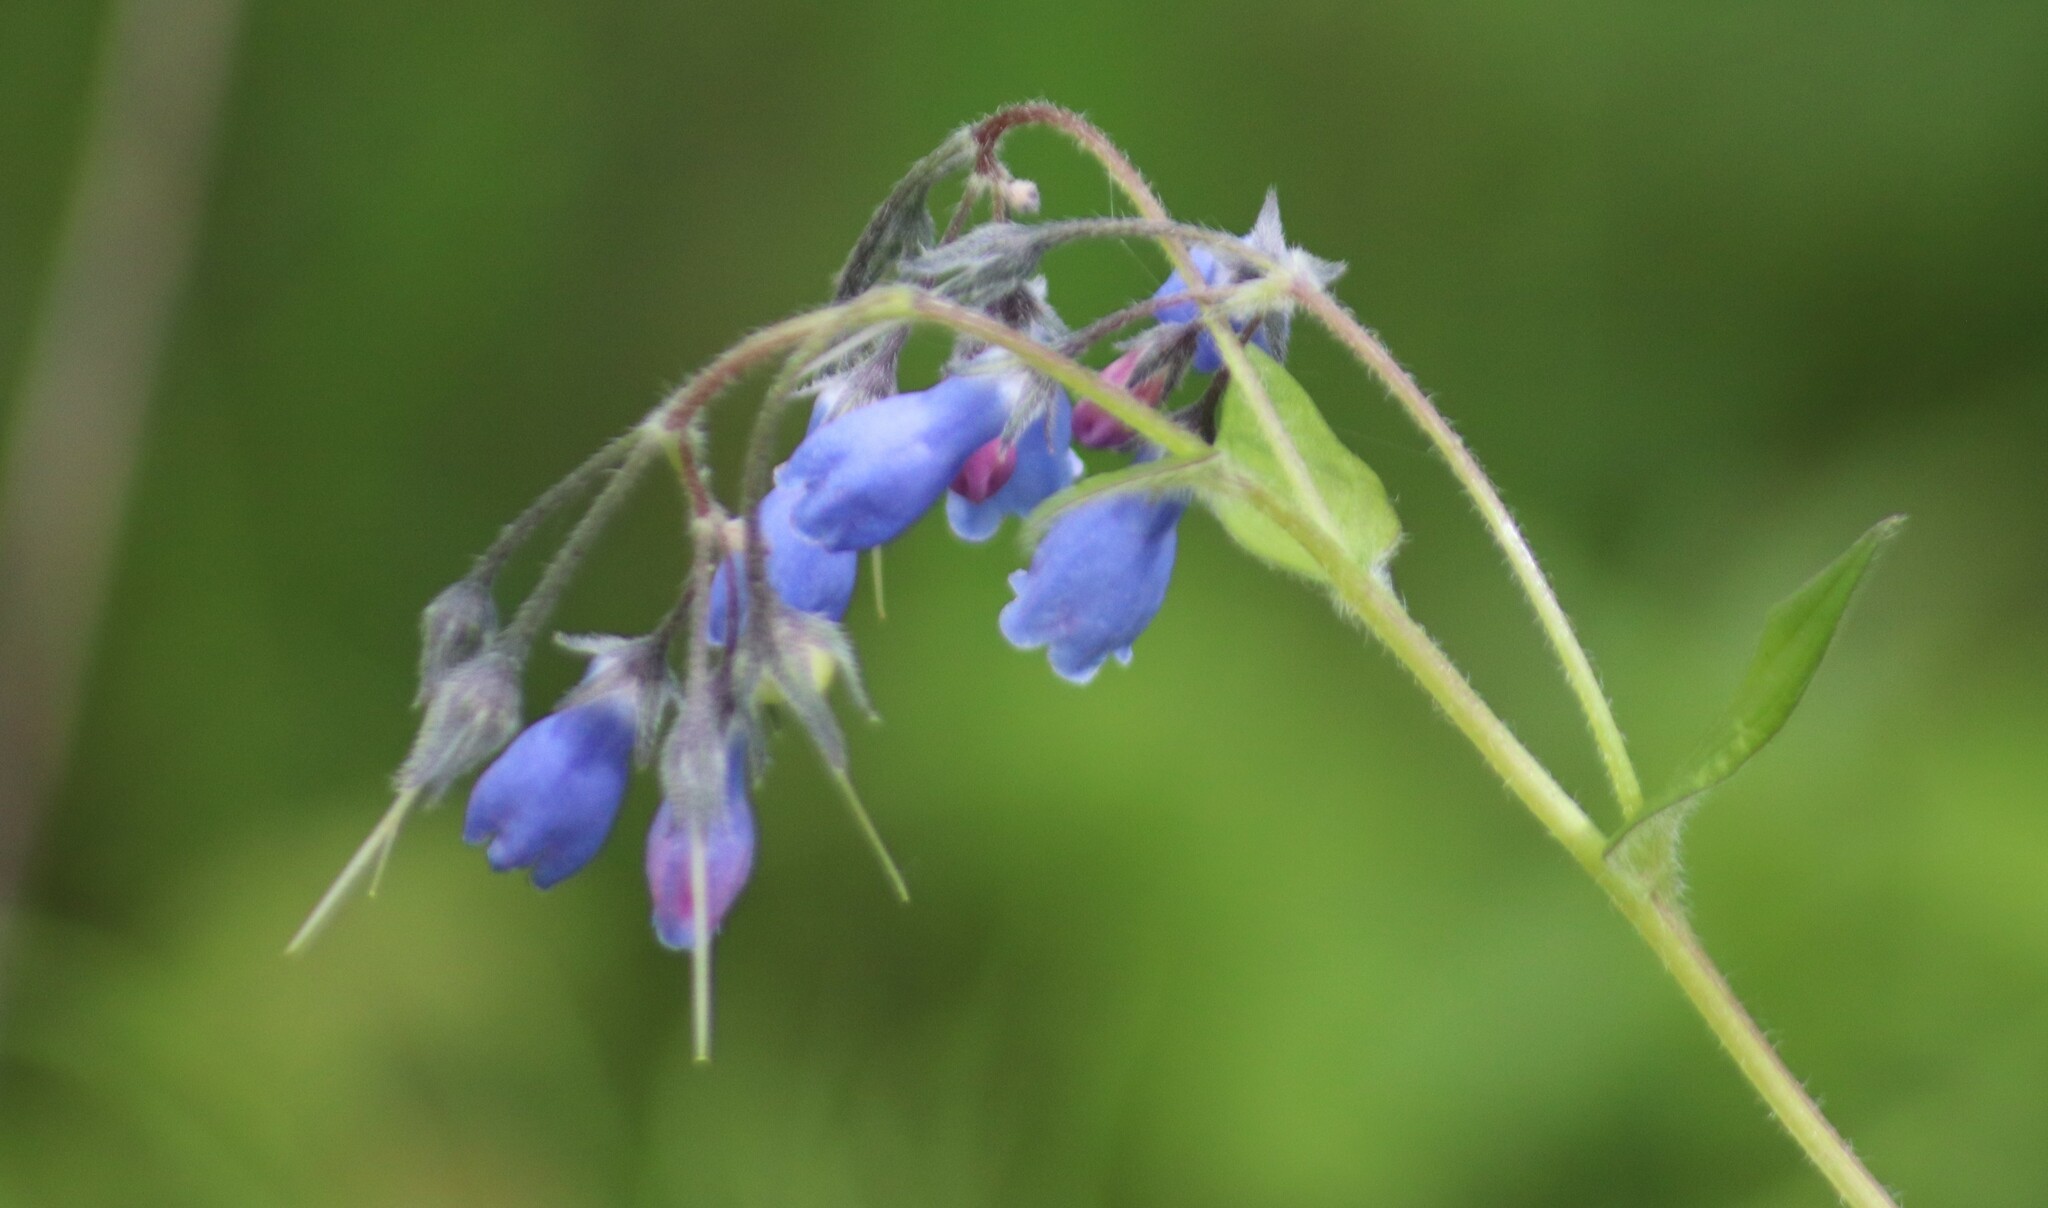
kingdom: Plantae
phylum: Tracheophyta
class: Magnoliopsida
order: Boraginales
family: Boraginaceae
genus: Mertensia
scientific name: Mertensia paniculata
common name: Panicled bluebells
